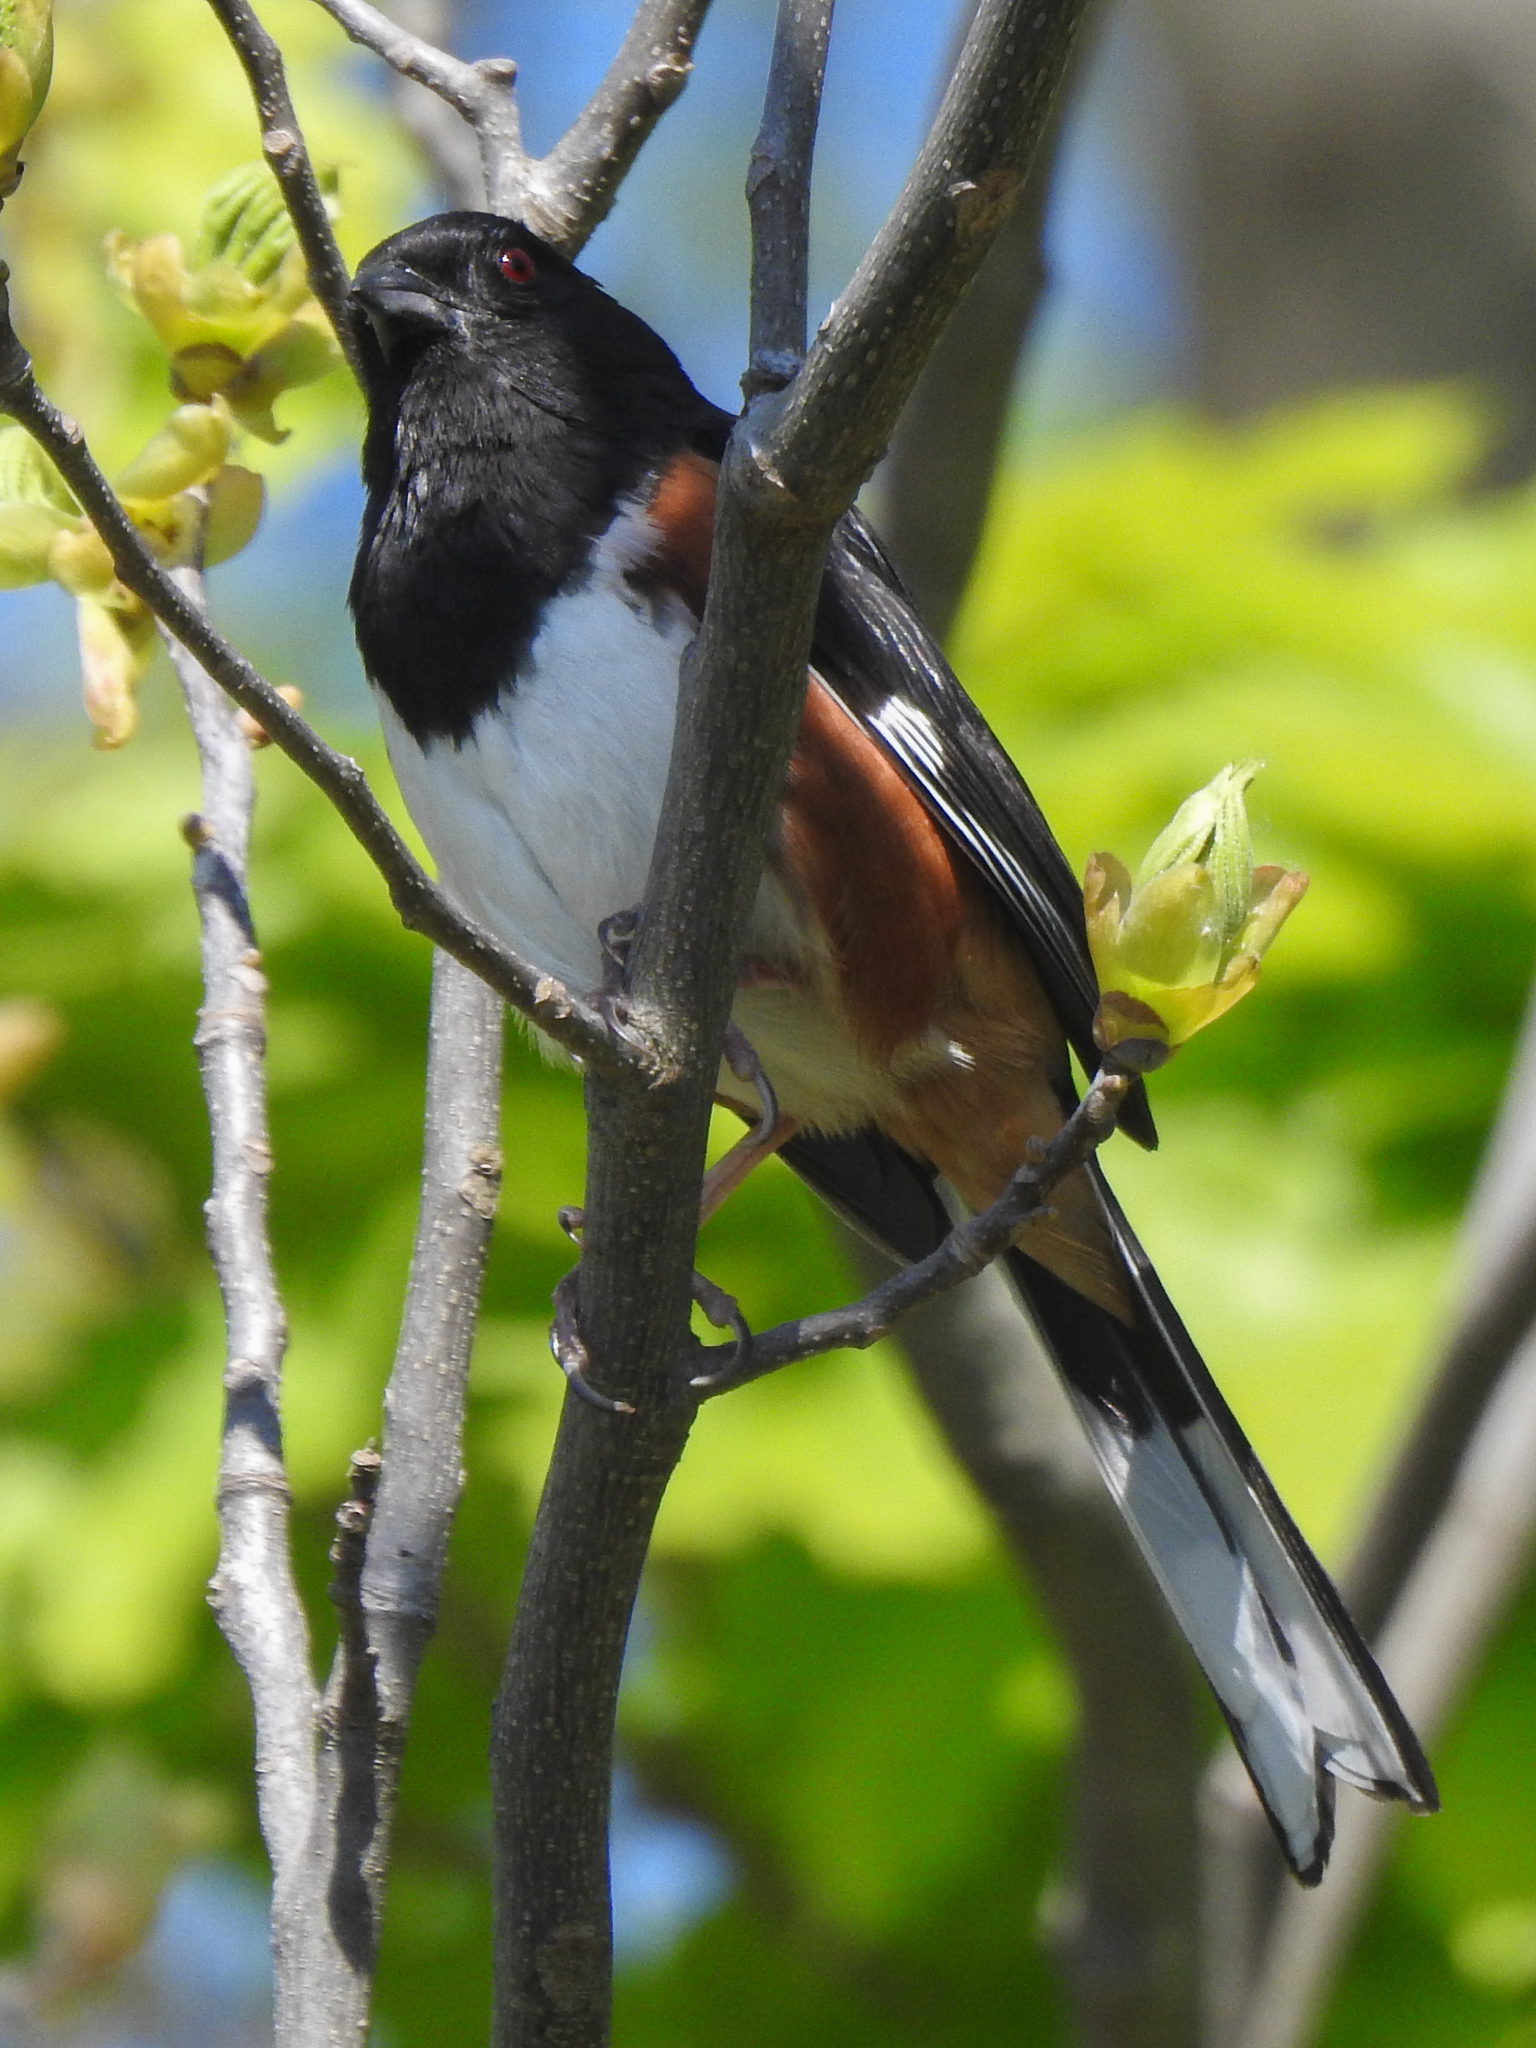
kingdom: Animalia
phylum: Chordata
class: Aves
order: Passeriformes
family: Passerellidae
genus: Pipilo
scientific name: Pipilo erythrophthalmus
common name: Eastern towhee
